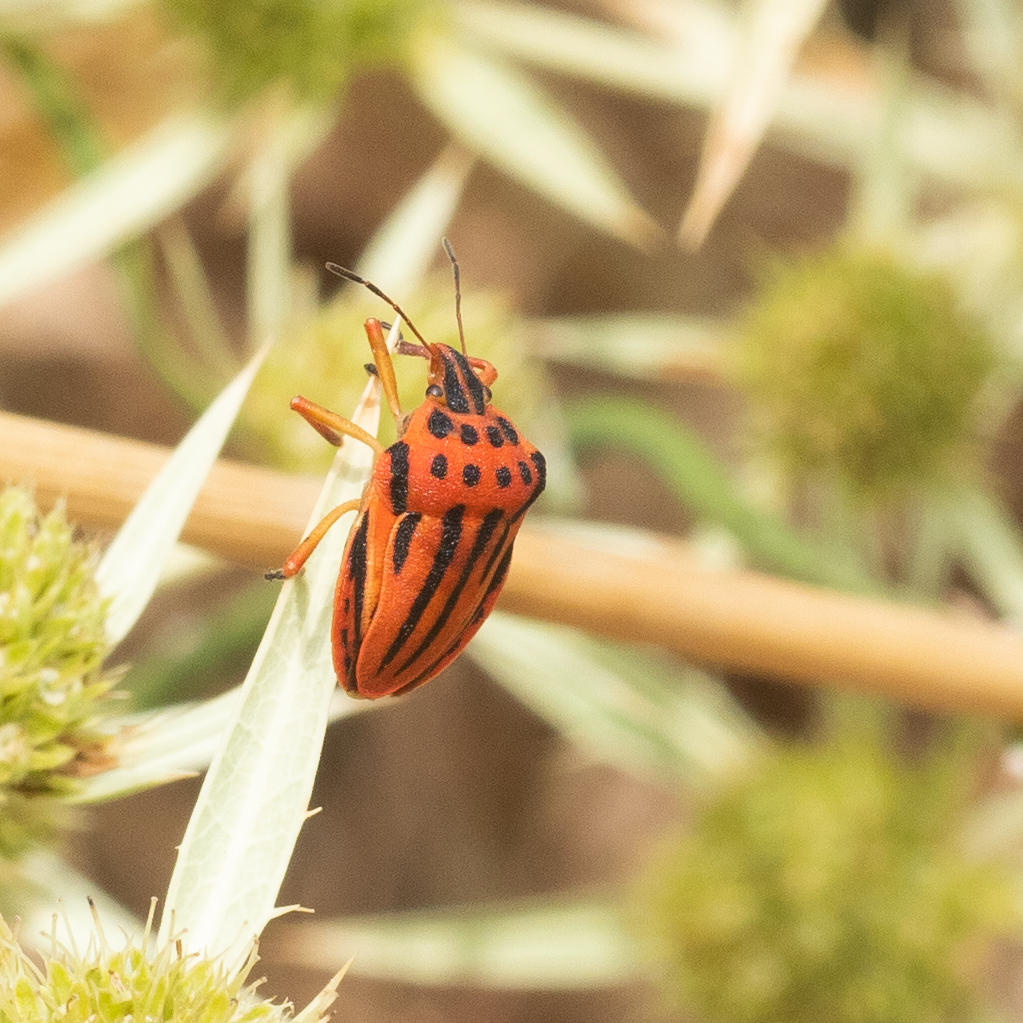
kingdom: Animalia
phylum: Arthropoda
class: Insecta
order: Hemiptera
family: Pentatomidae
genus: Graphosoma
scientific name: Graphosoma semipunctatum
